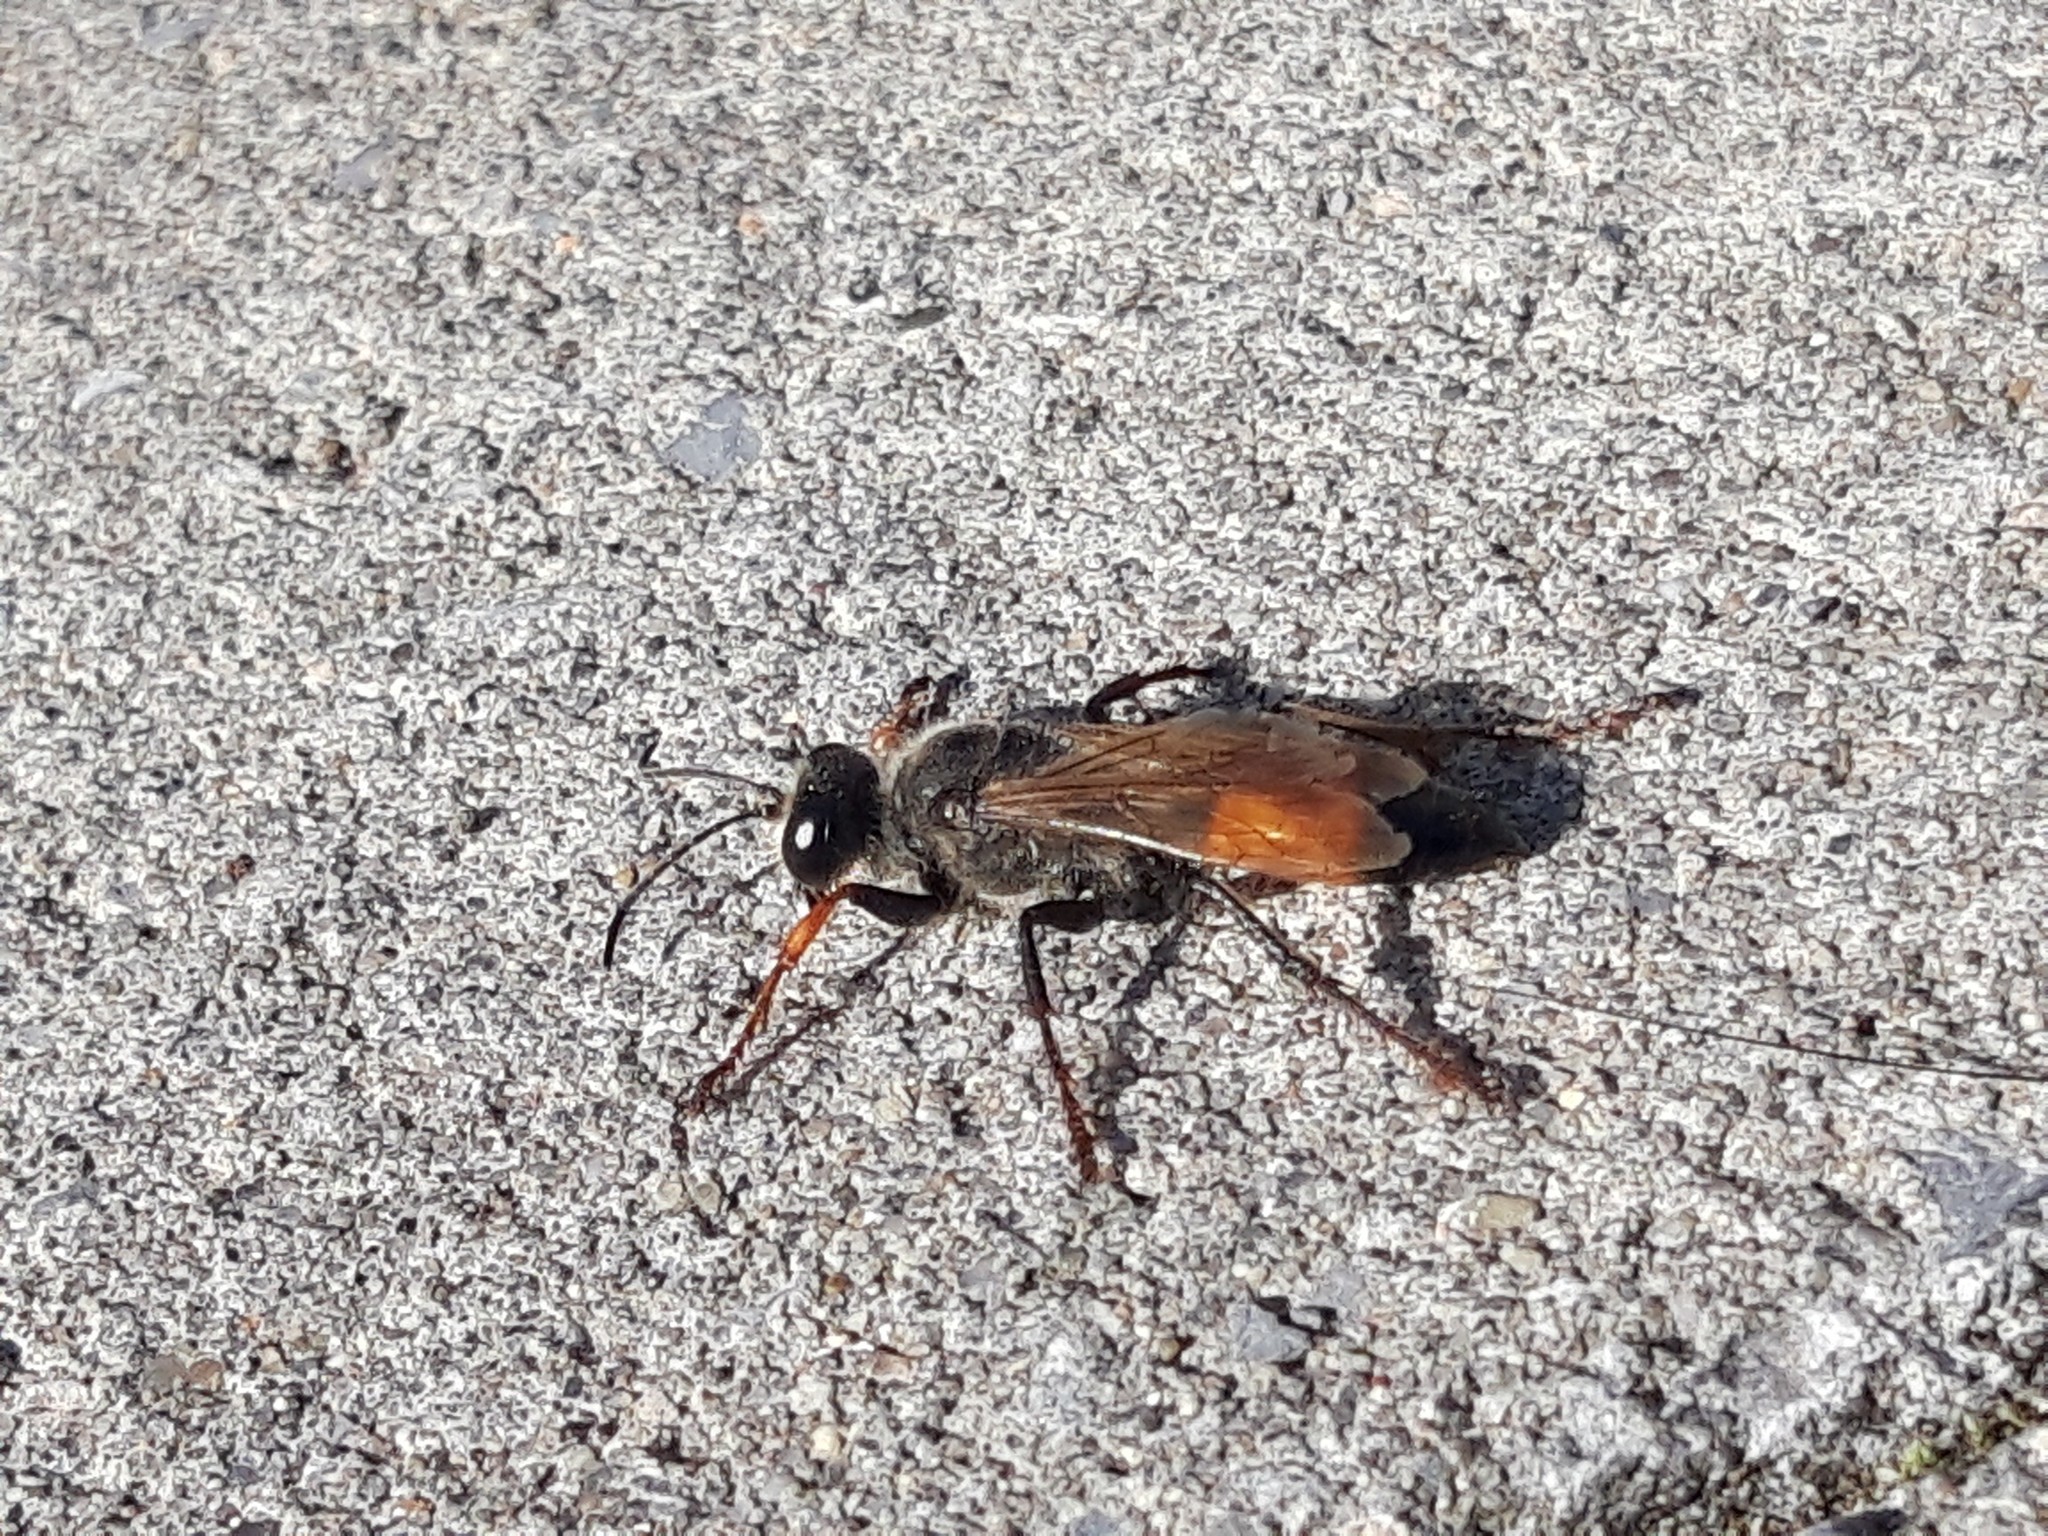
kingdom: Animalia
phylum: Arthropoda
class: Insecta
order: Hymenoptera
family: Sphecidae
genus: Sphex
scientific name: Sphex funerarius
